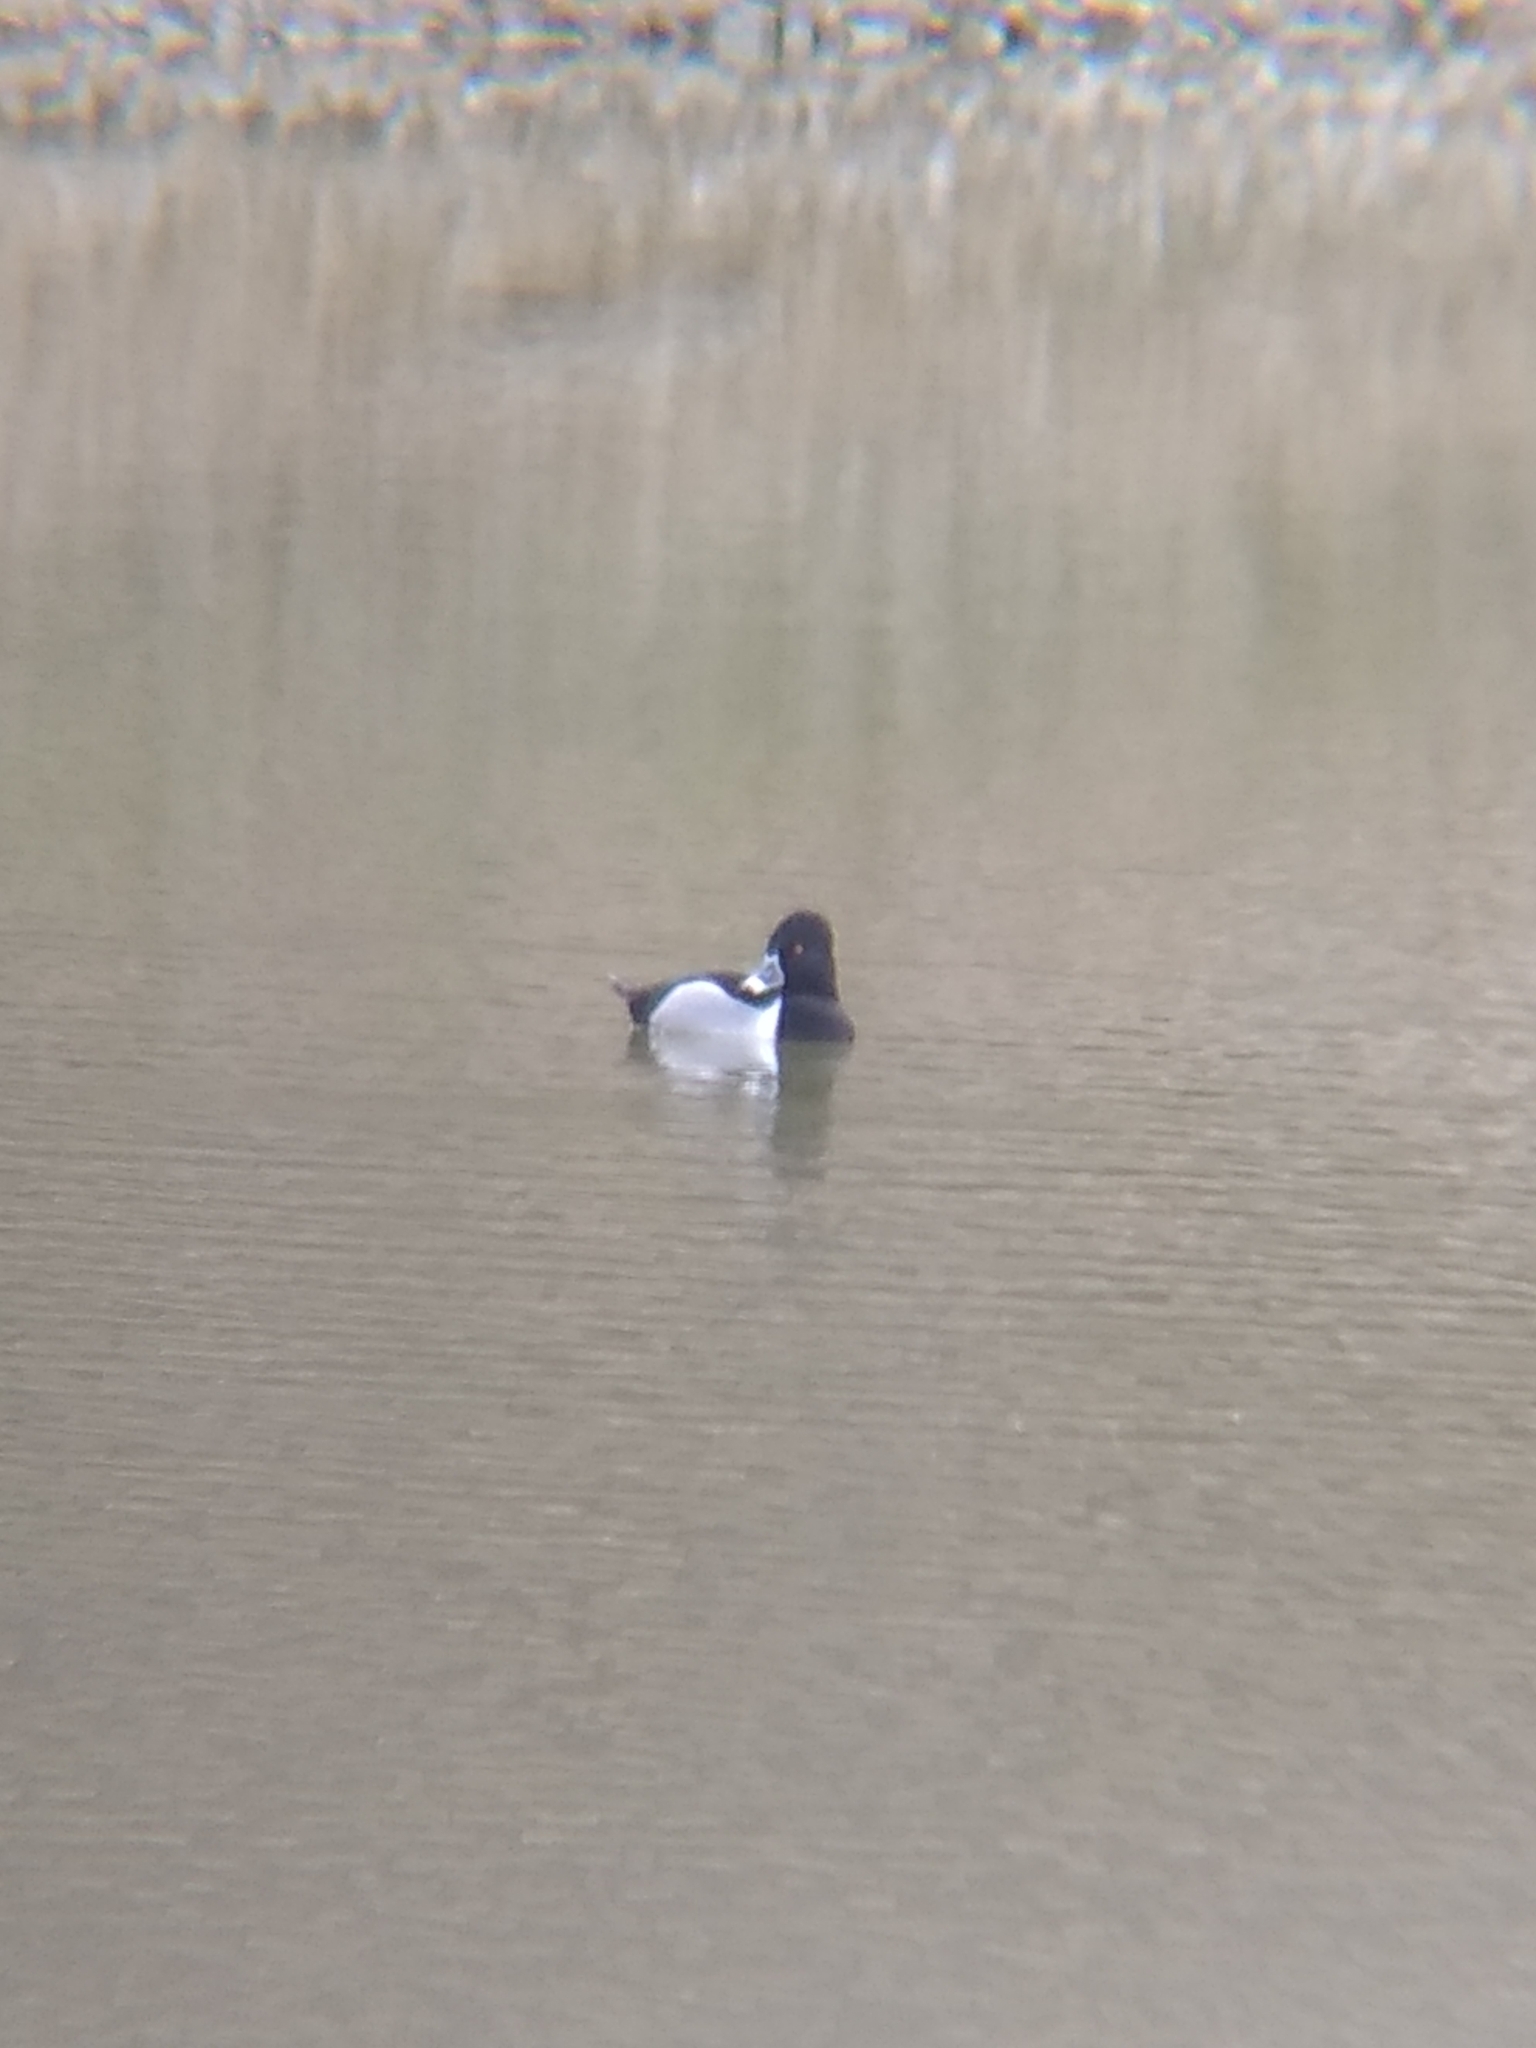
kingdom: Animalia
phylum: Chordata
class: Aves
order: Anseriformes
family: Anatidae
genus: Aythya
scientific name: Aythya collaris
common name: Ring-necked duck
